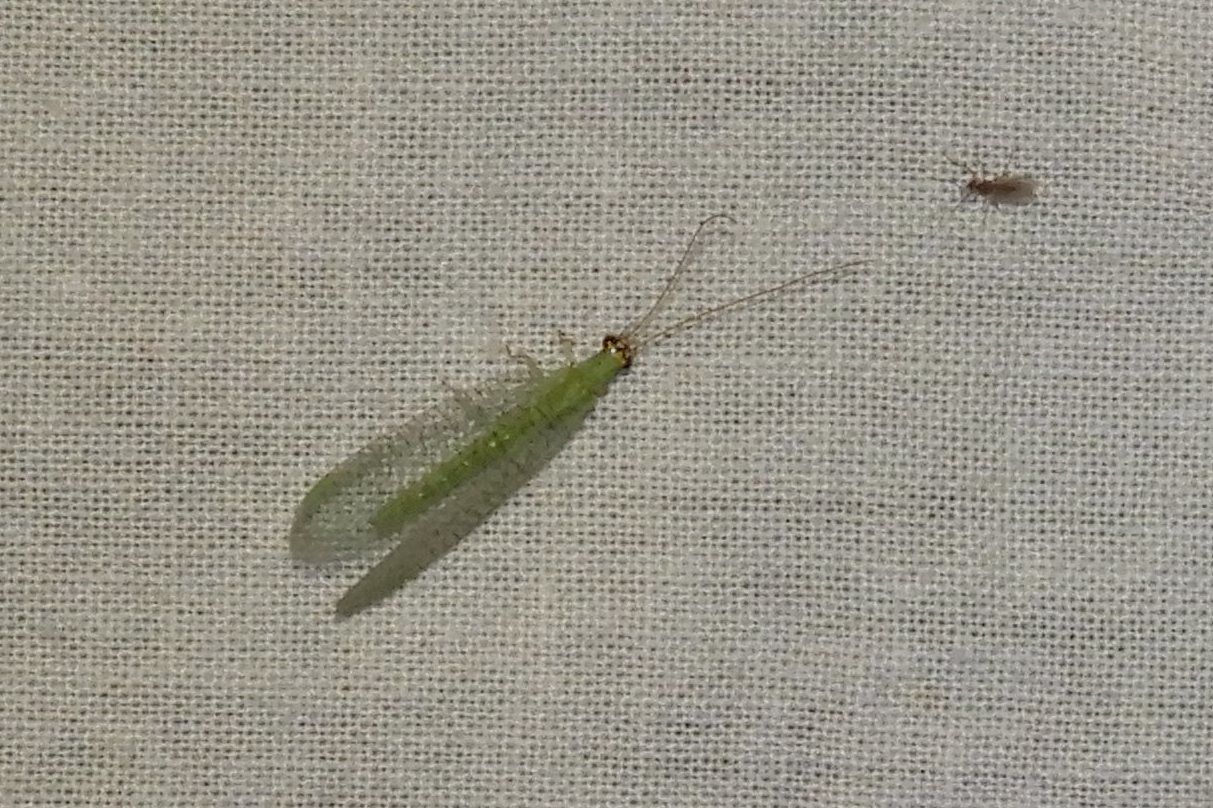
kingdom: Animalia
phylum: Arthropoda
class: Insecta
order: Neuroptera
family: Chrysopidae
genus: Chrysopa
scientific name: Chrysopa oculata
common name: Golden-eyed lacewing
